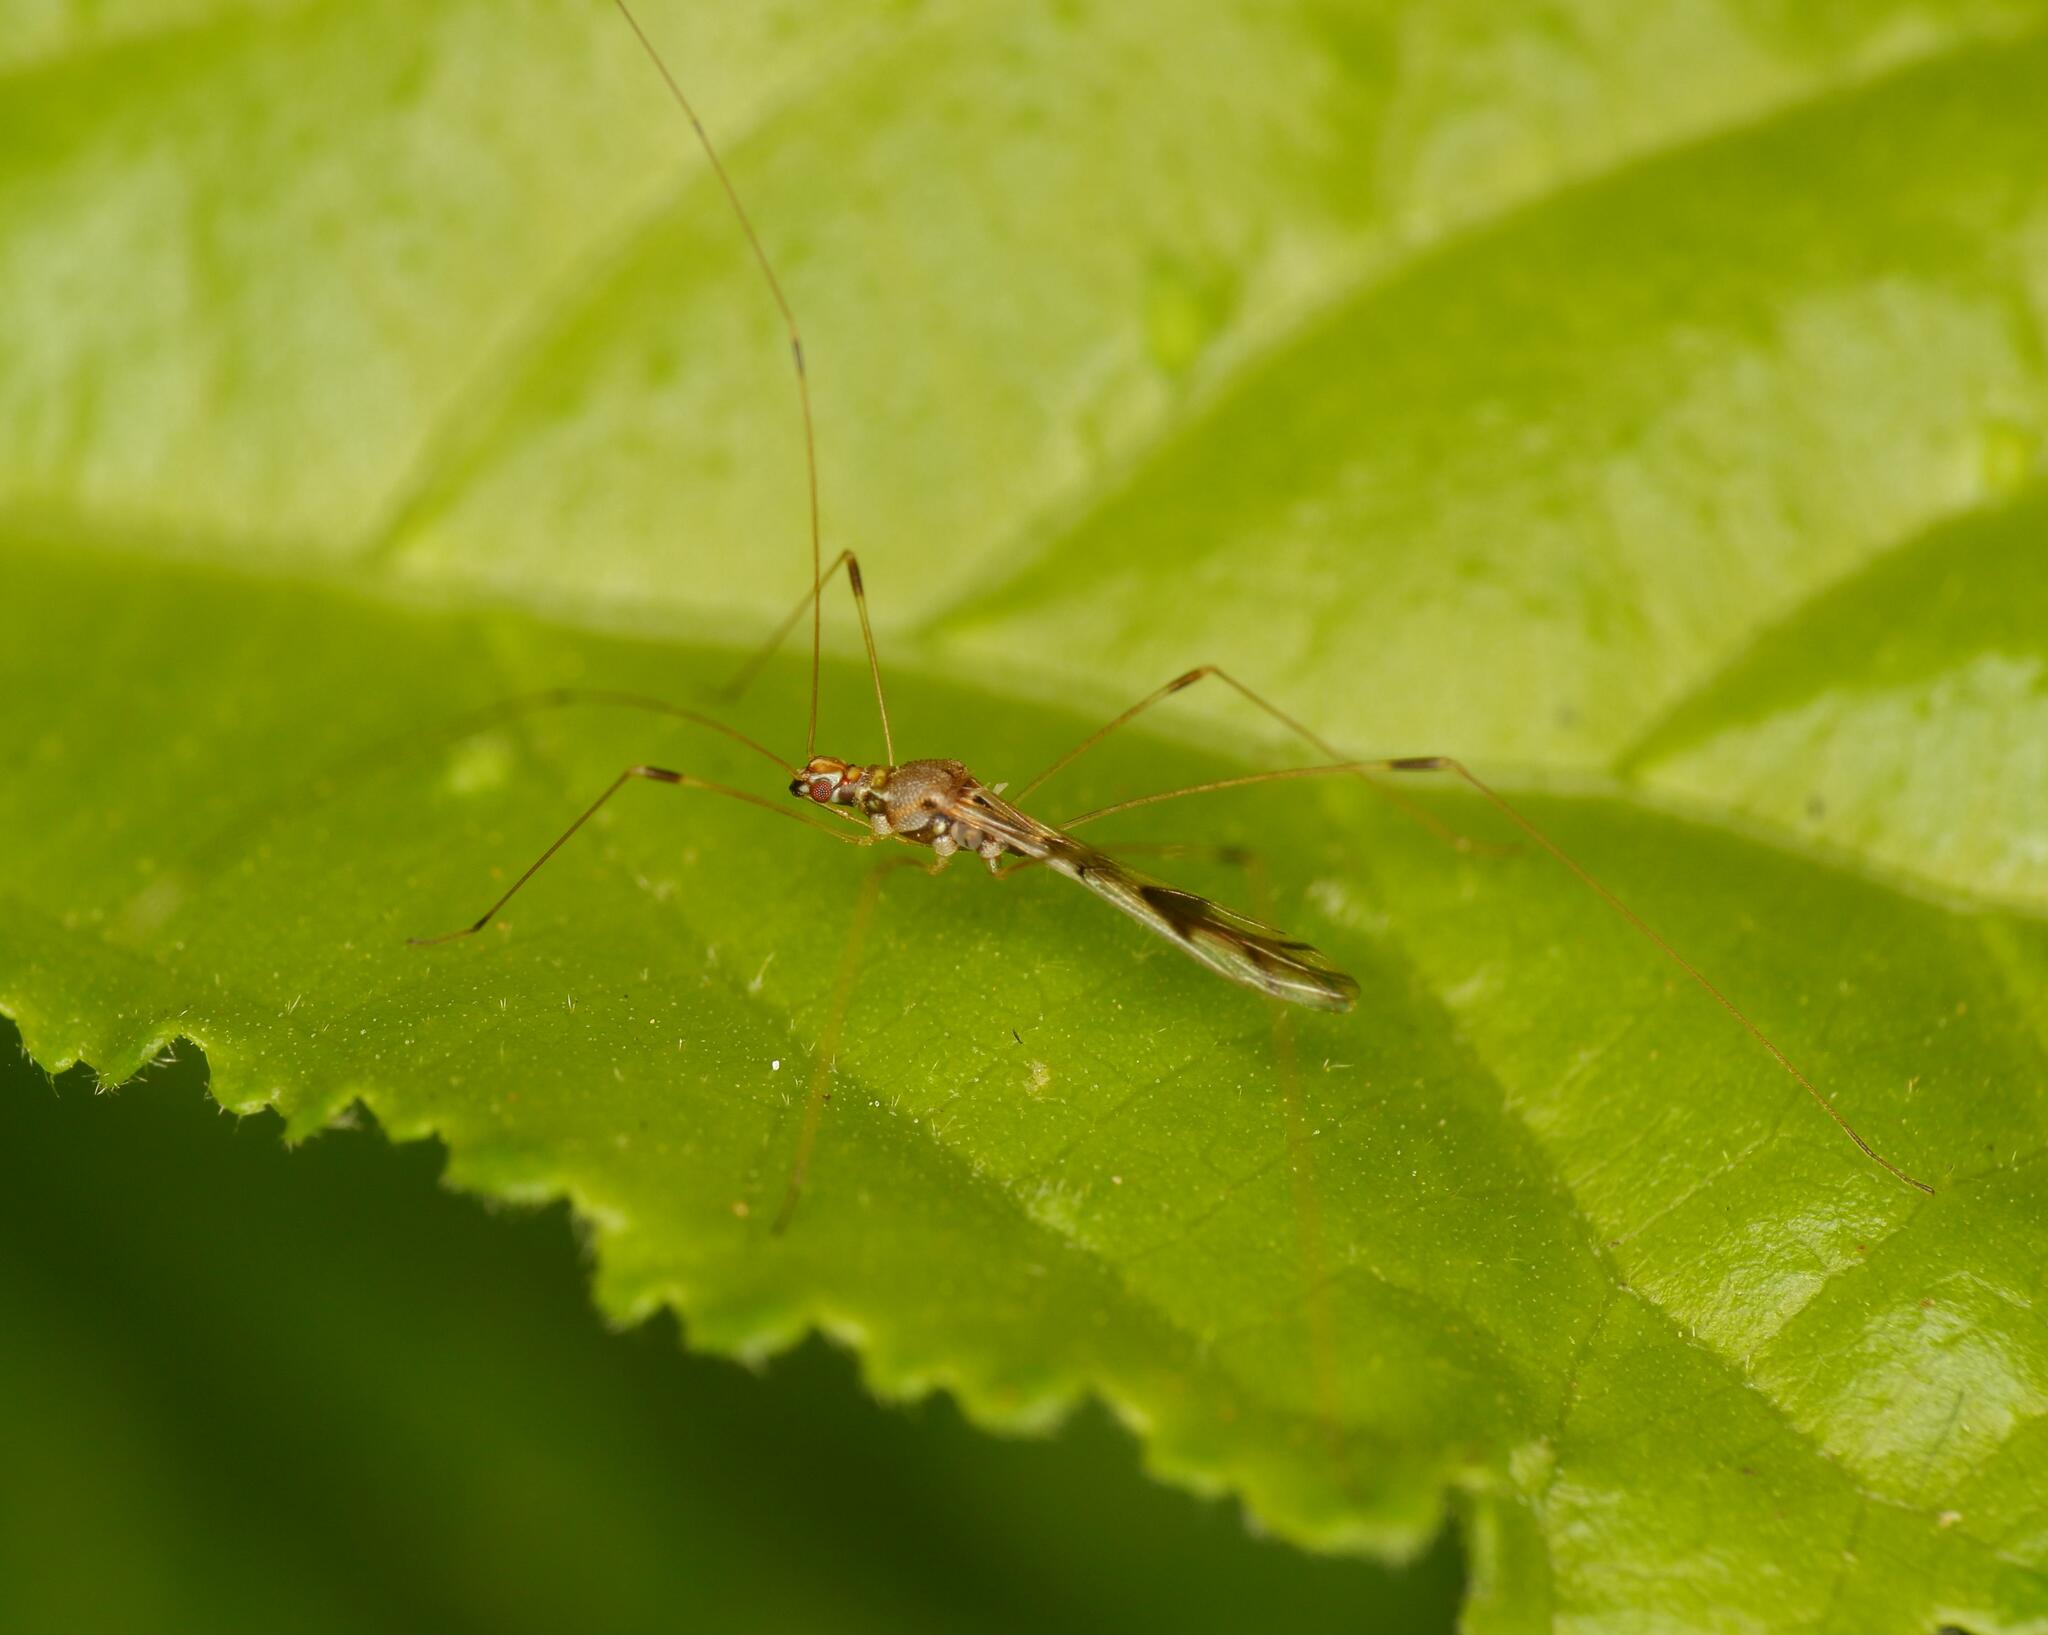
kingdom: Animalia
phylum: Arthropoda
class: Insecta
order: Hemiptera
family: Berytidae
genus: Neostusakia
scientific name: Neostusakia picticornis
